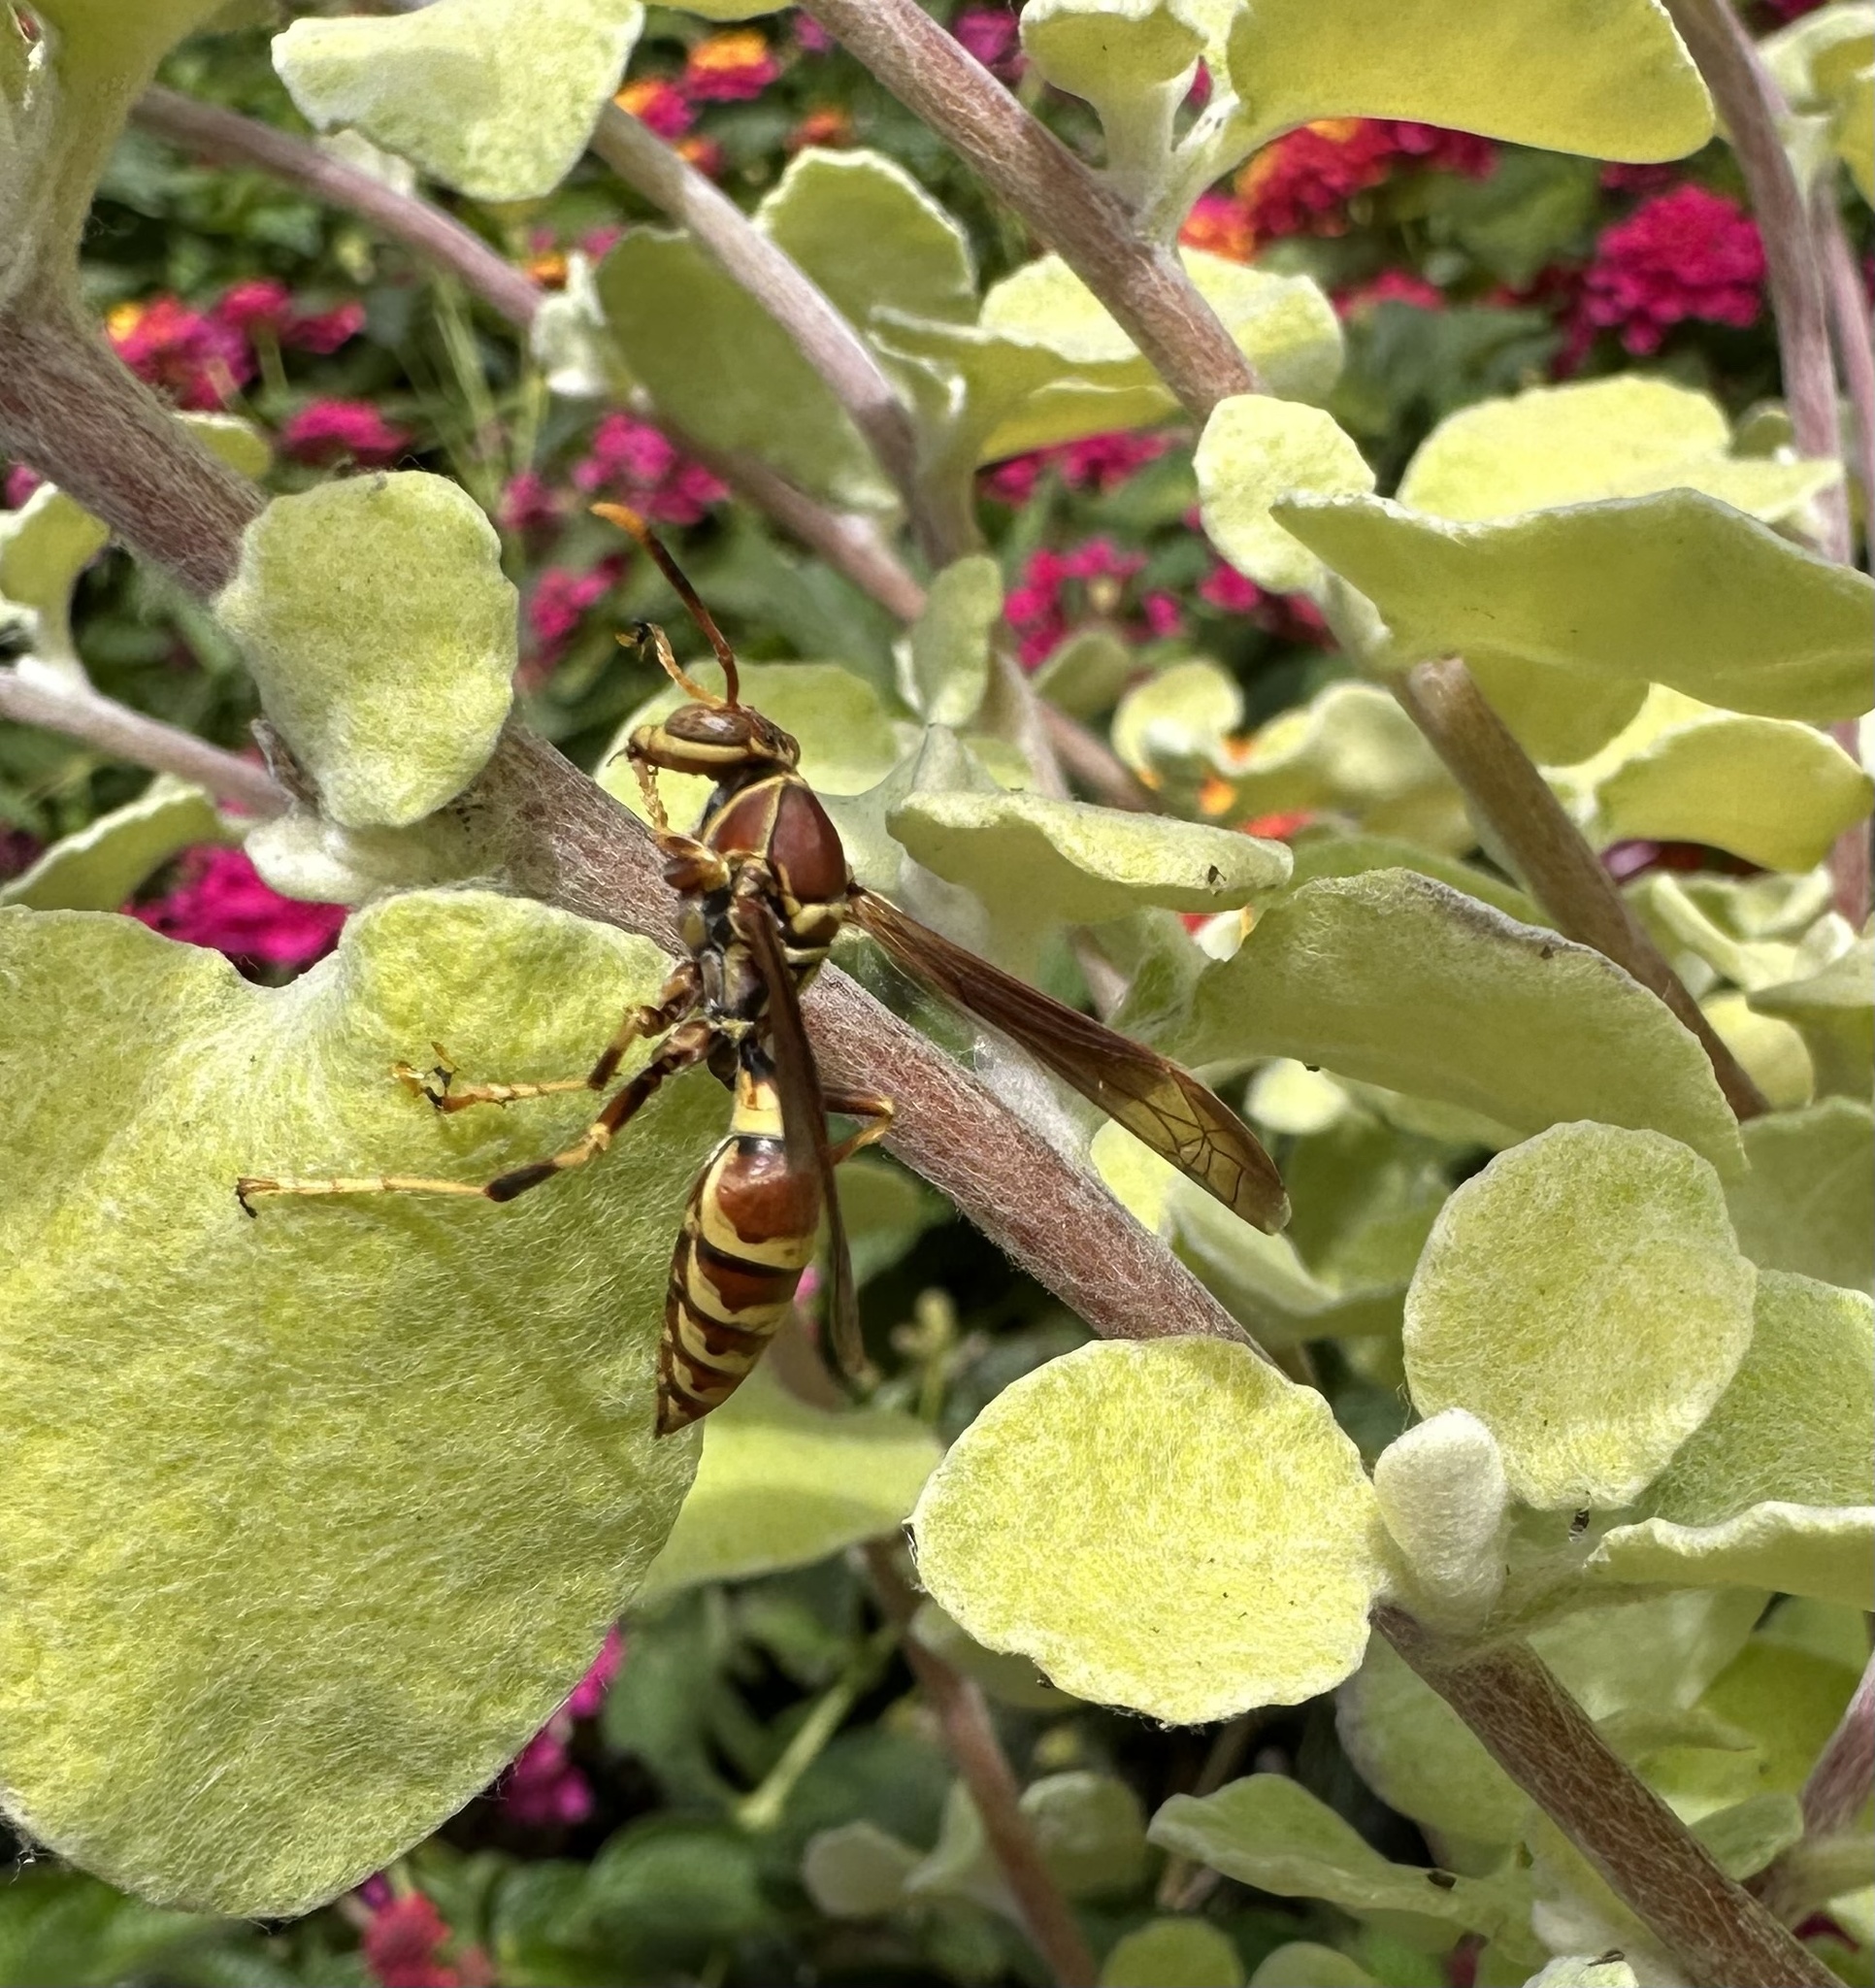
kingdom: Animalia
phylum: Arthropoda
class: Insecta
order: Hymenoptera
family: Eumenidae
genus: Polistes
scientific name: Polistes exclamans
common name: Paper wasp
